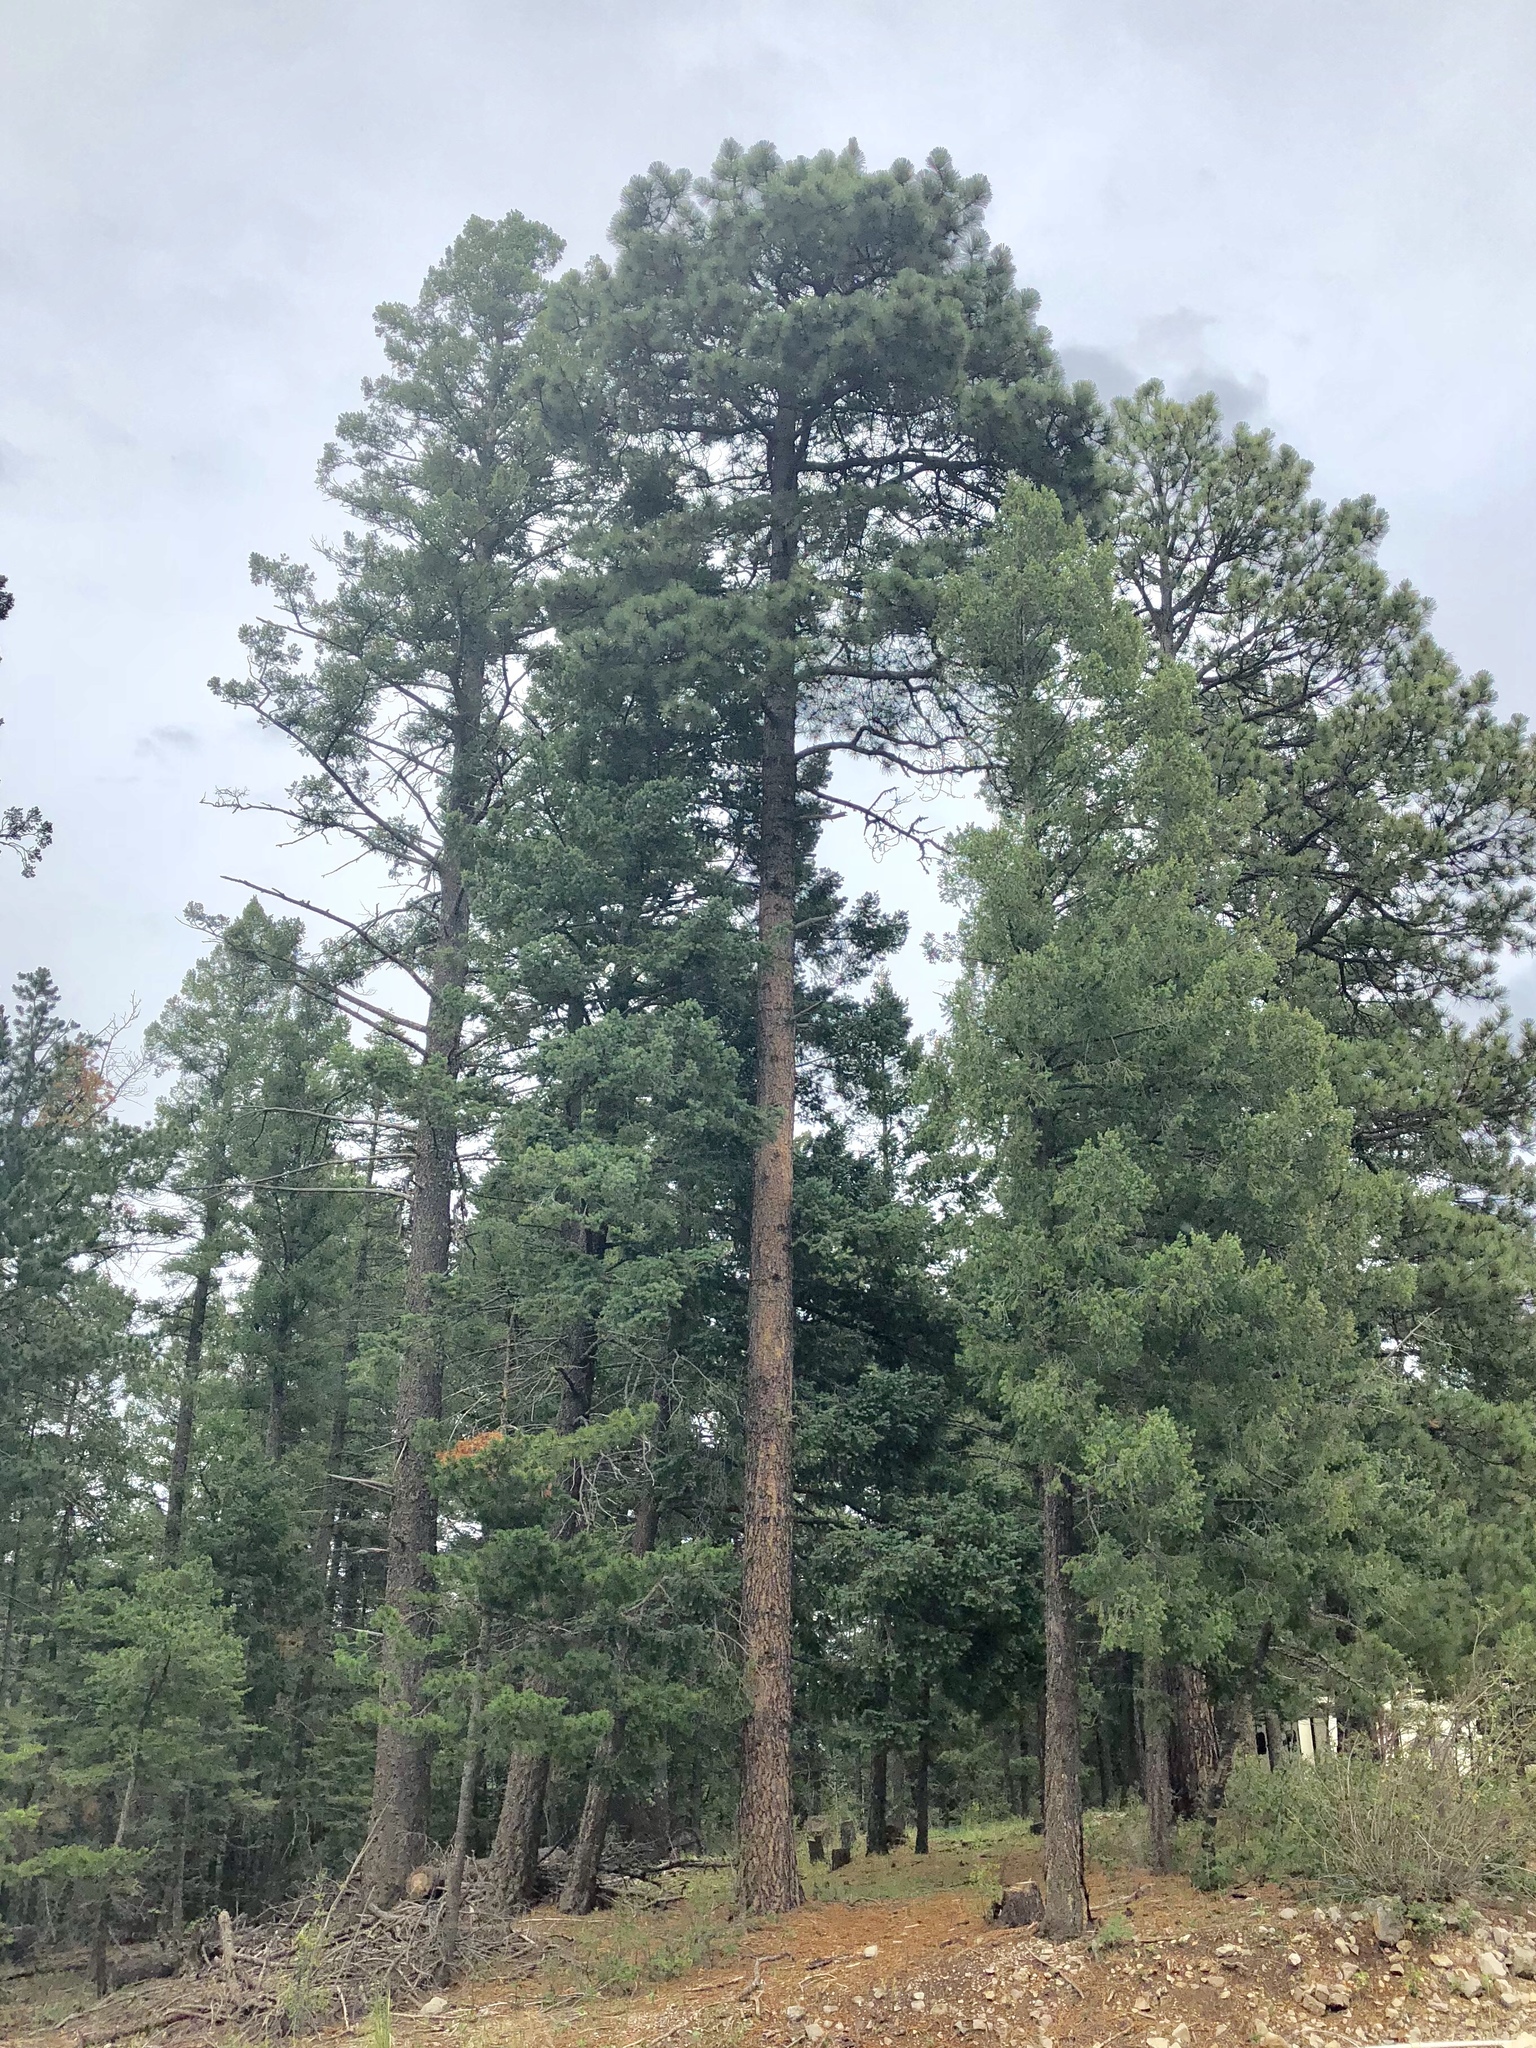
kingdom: Plantae
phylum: Tracheophyta
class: Pinopsida
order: Pinales
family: Pinaceae
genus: Pinus
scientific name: Pinus ponderosa
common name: Western yellow-pine
